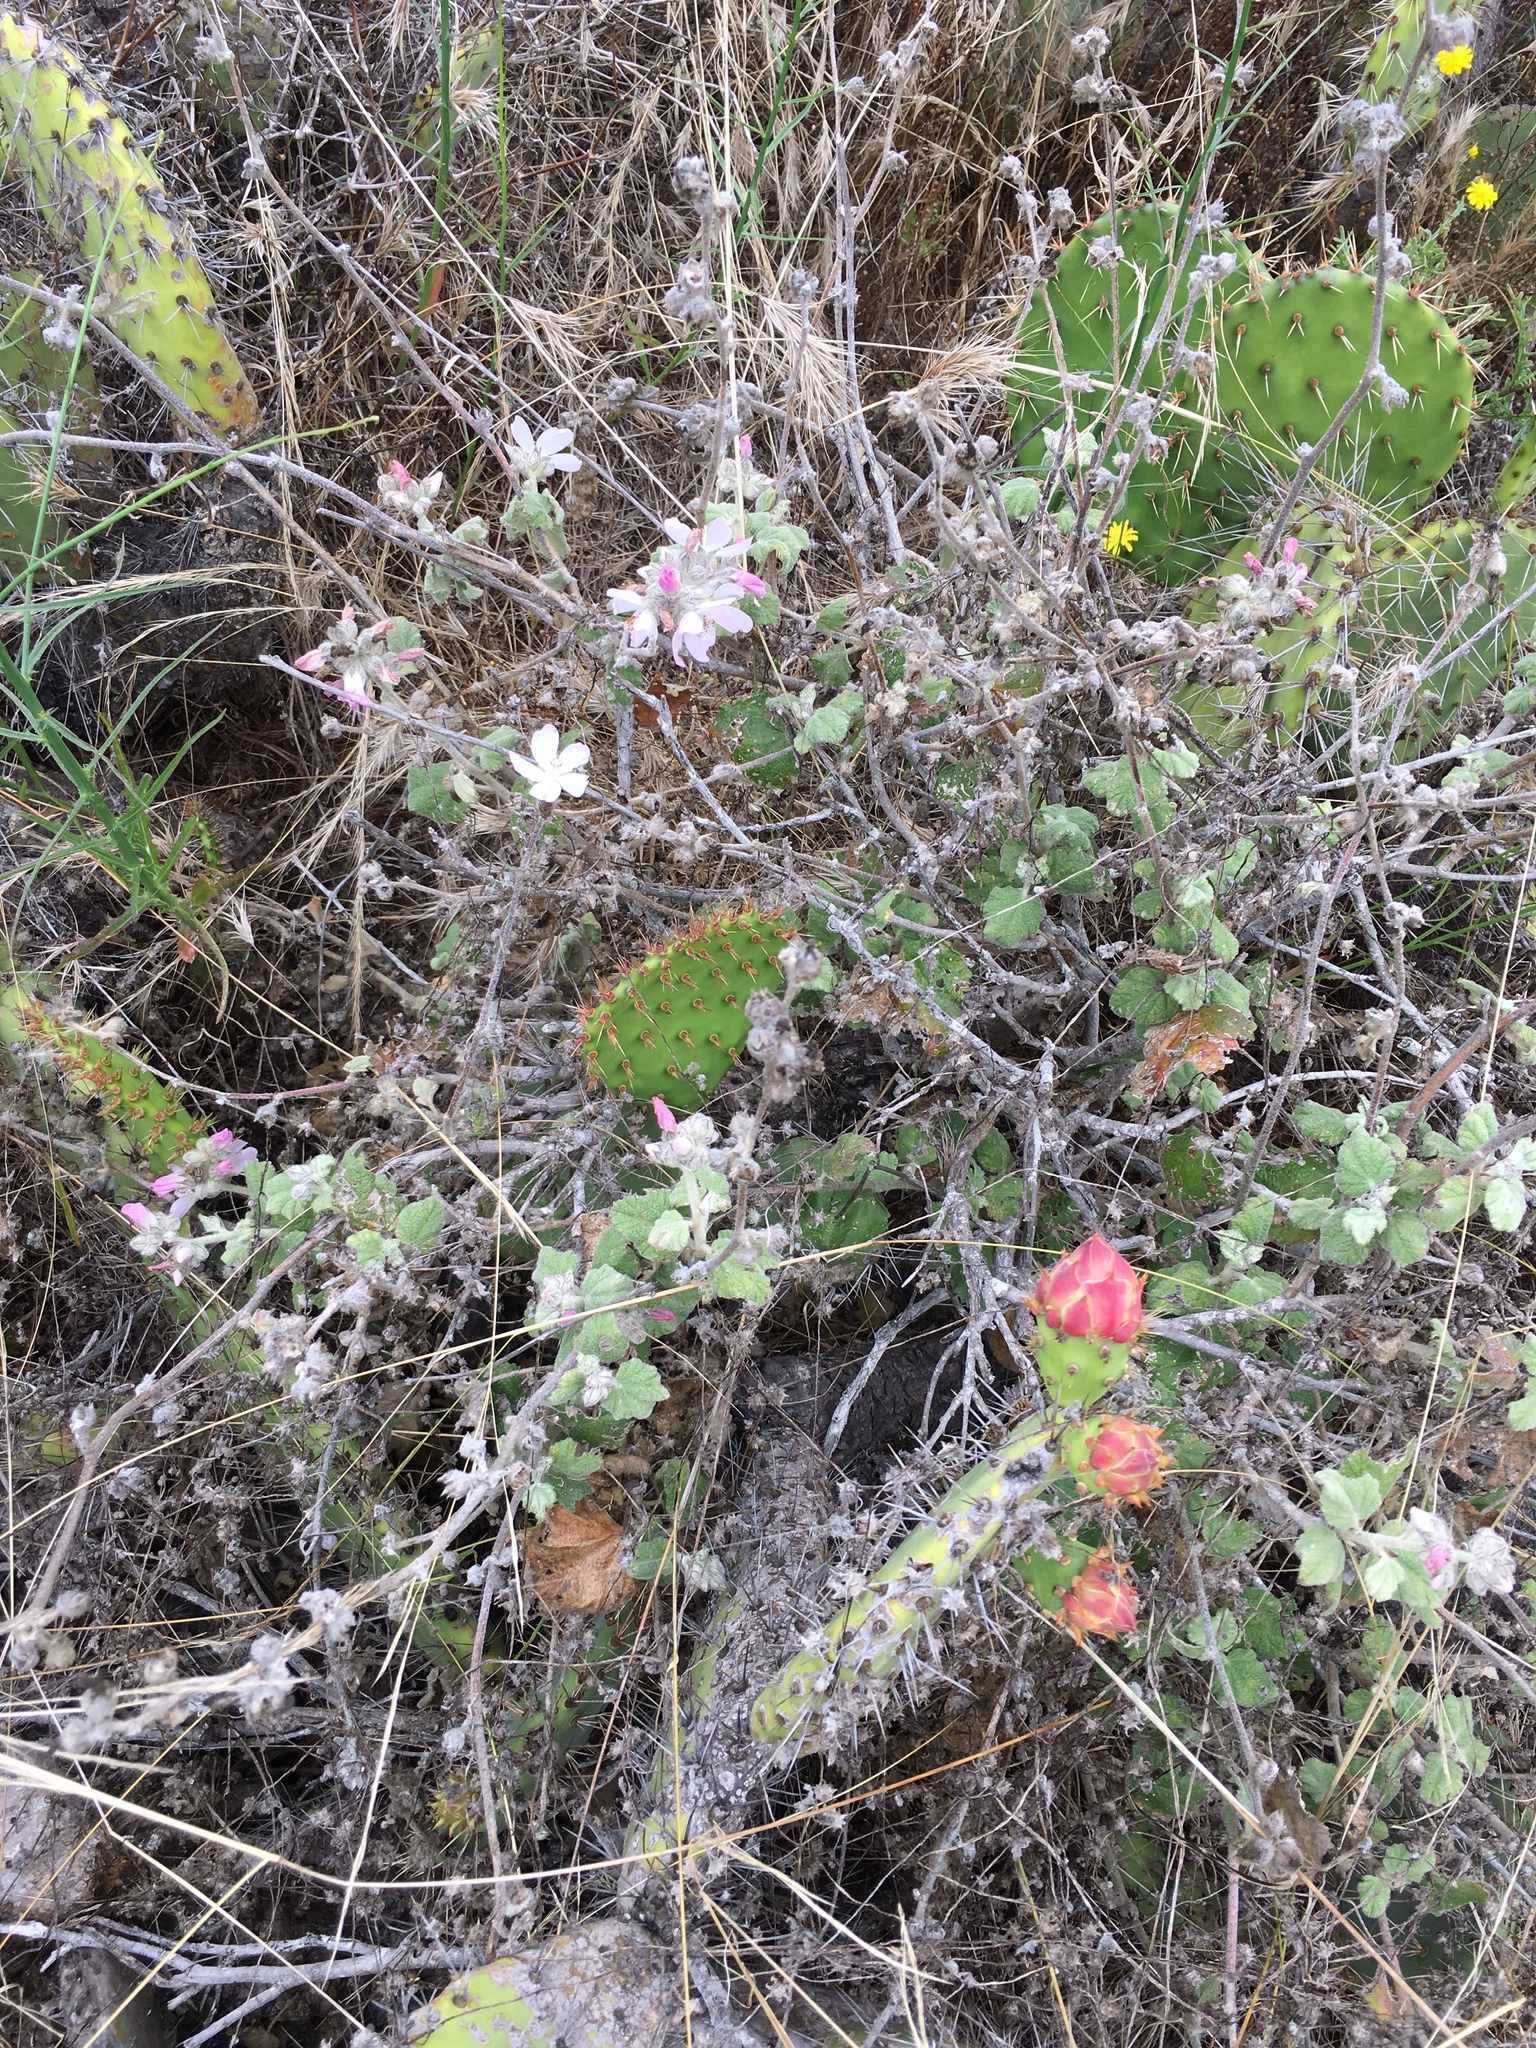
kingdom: Plantae
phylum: Tracheophyta
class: Magnoliopsida
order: Malvales
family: Malvaceae
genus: Malacothamnus
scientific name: Malacothamnus clementinus
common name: San clemente island bush-mallow
